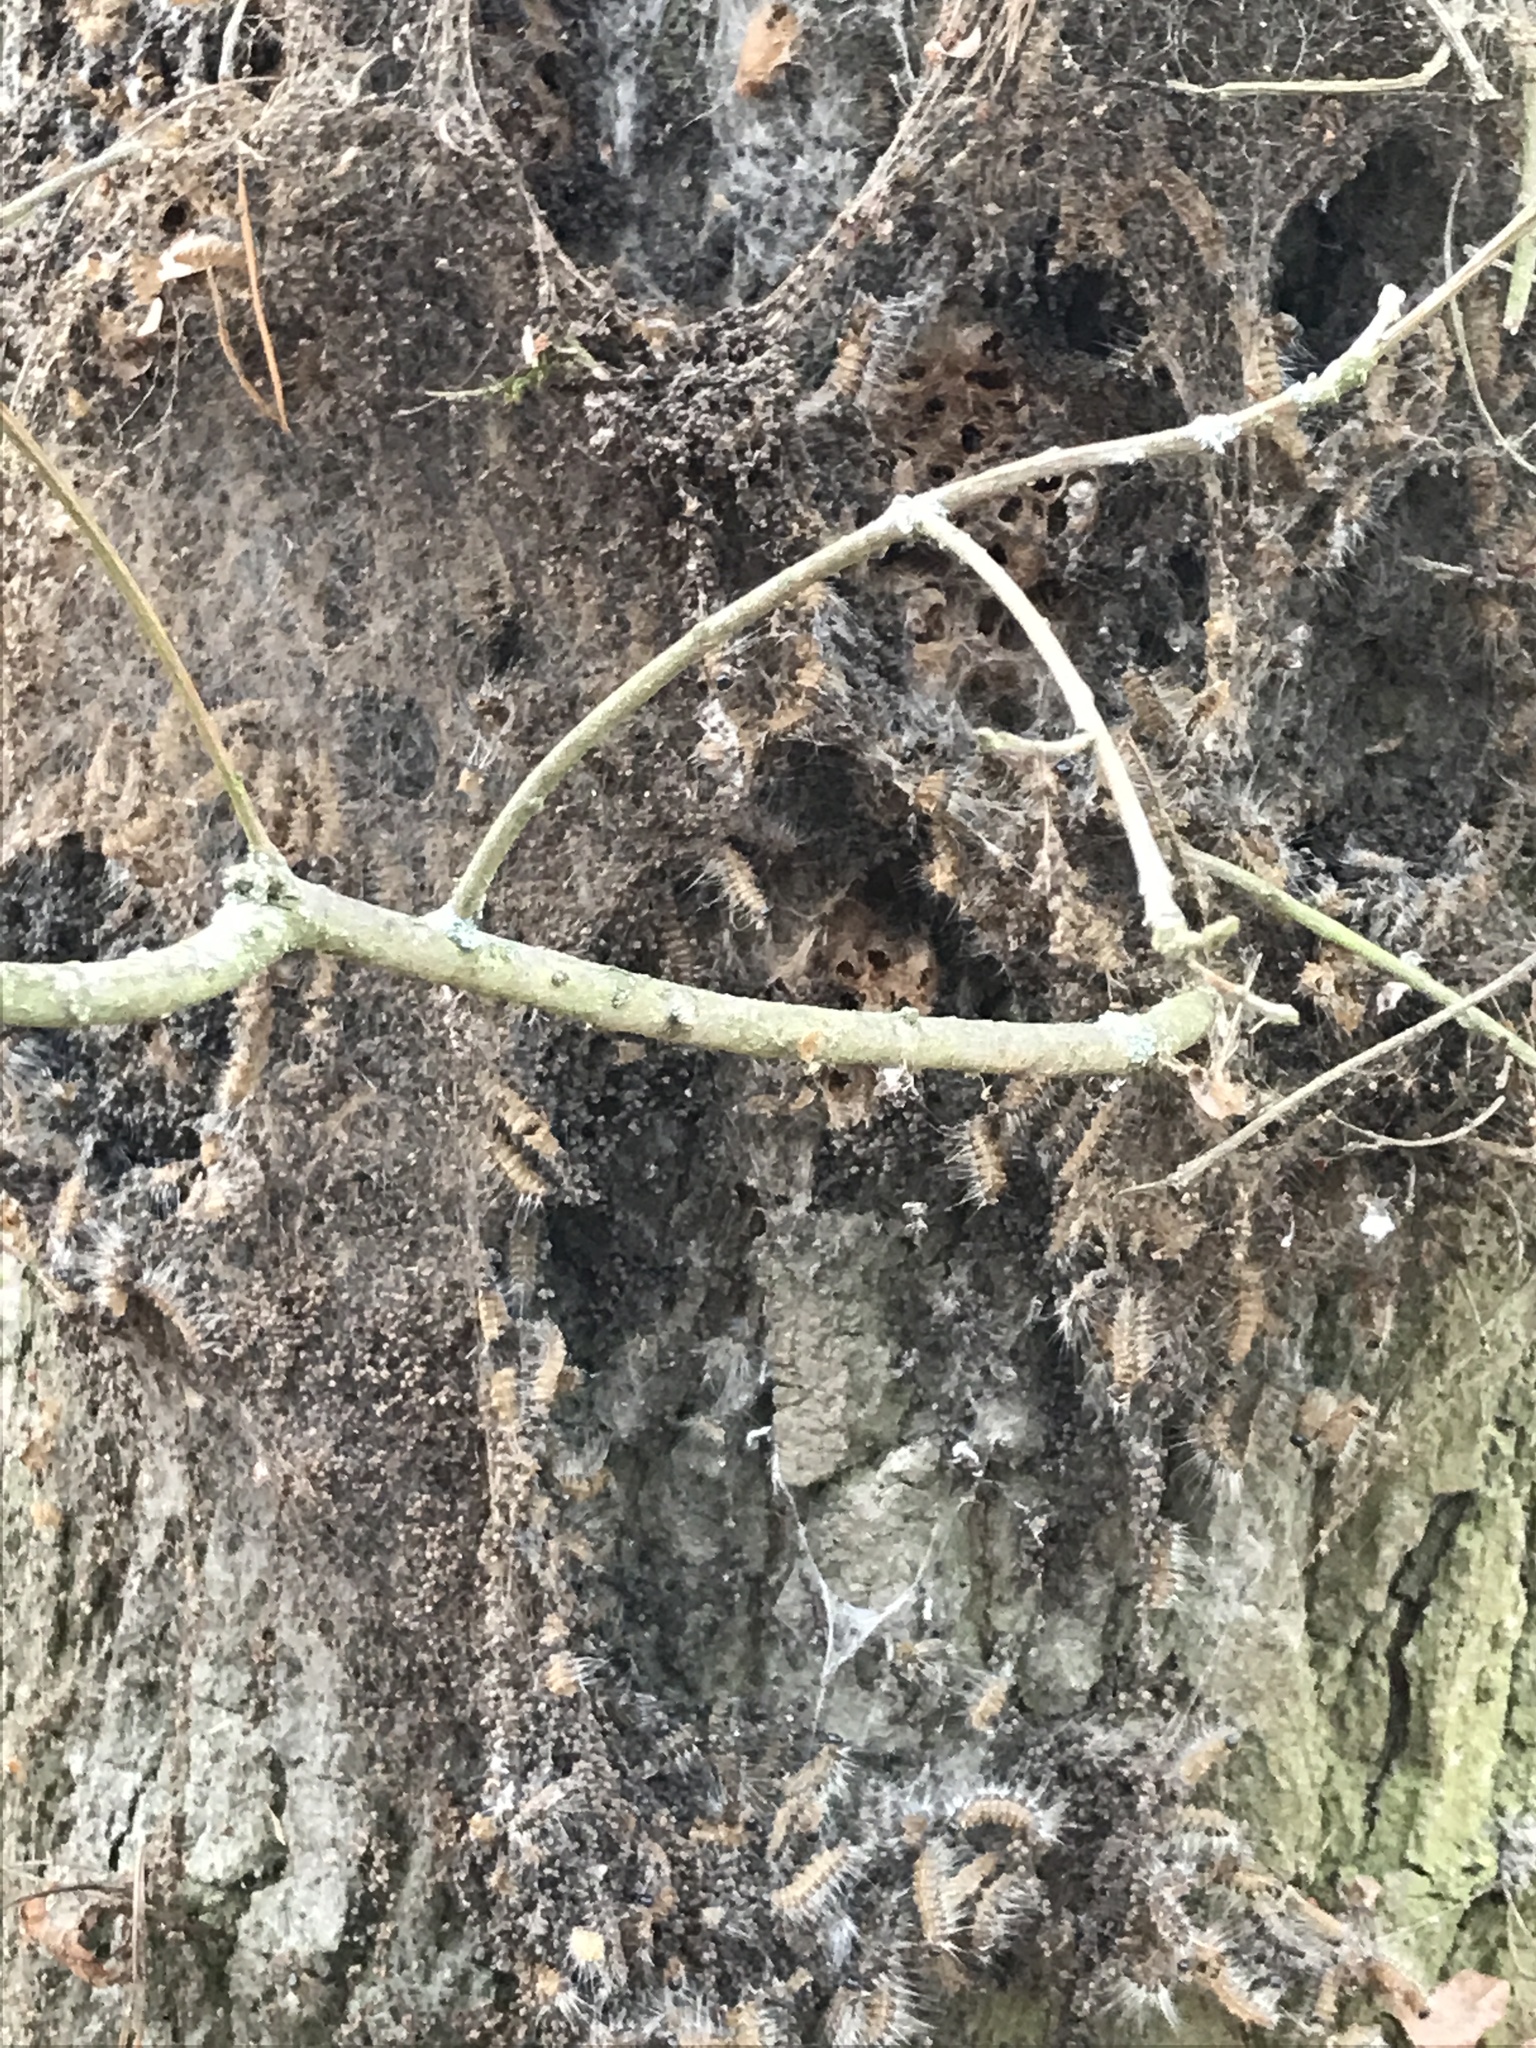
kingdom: Animalia
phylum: Arthropoda
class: Insecta
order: Lepidoptera
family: Notodontidae
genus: Thaumetopoea
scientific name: Thaumetopoea processionea
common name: Oak processionea
